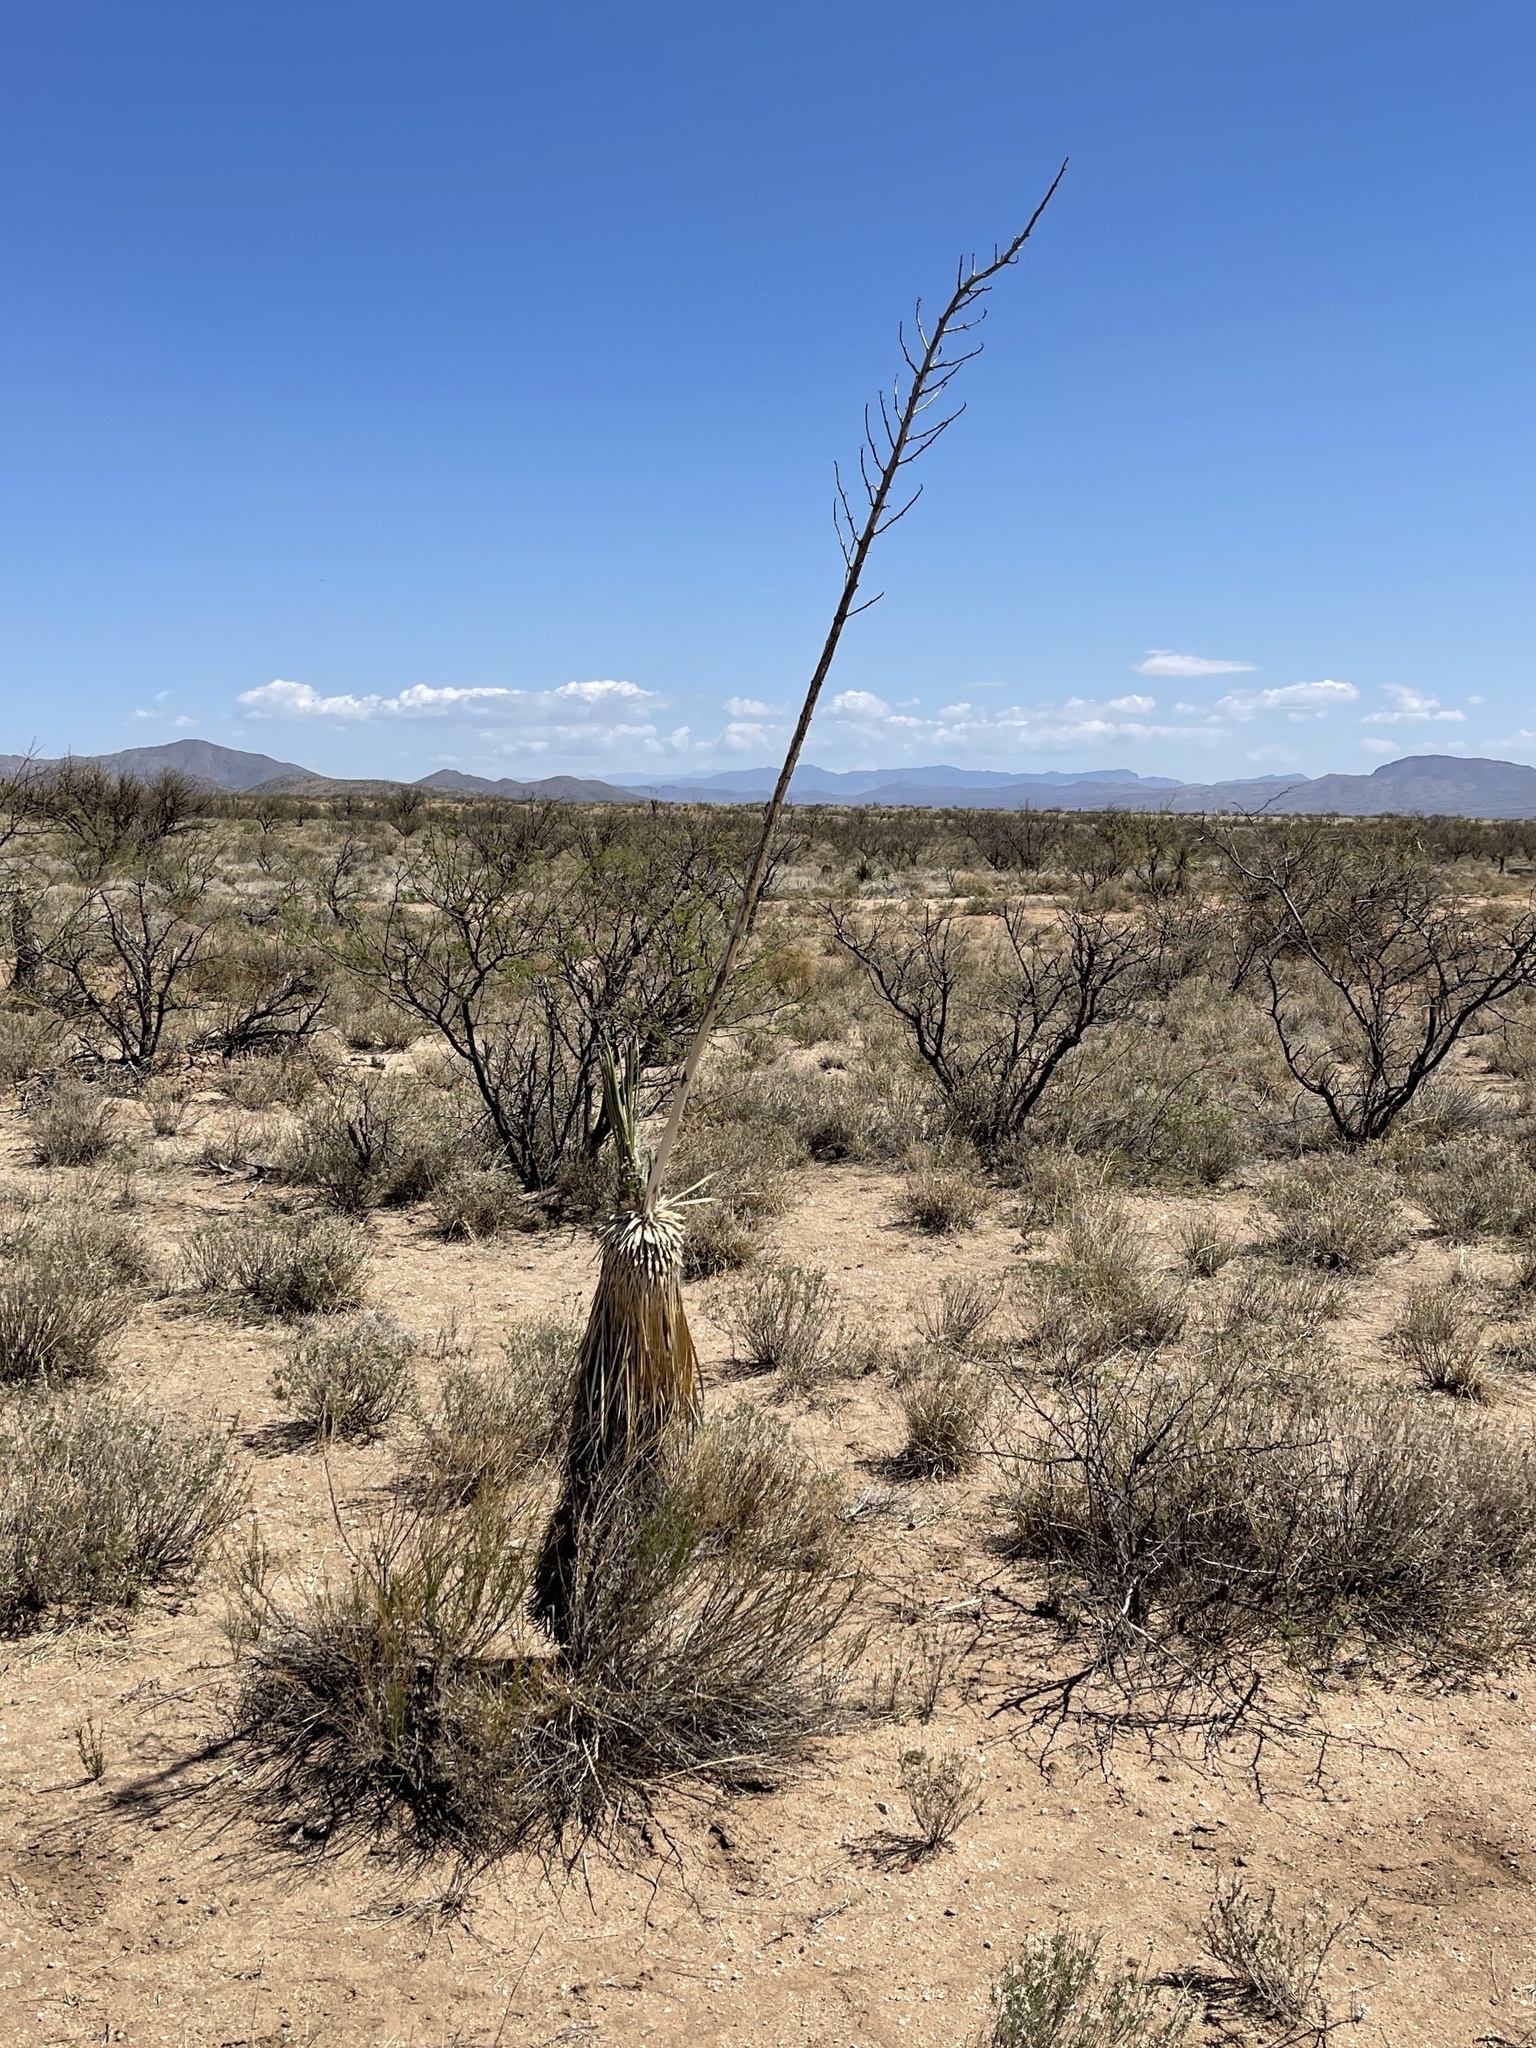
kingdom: Plantae
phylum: Tracheophyta
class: Liliopsida
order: Asparagales
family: Asparagaceae
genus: Yucca
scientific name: Yucca elata
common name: Palmella
